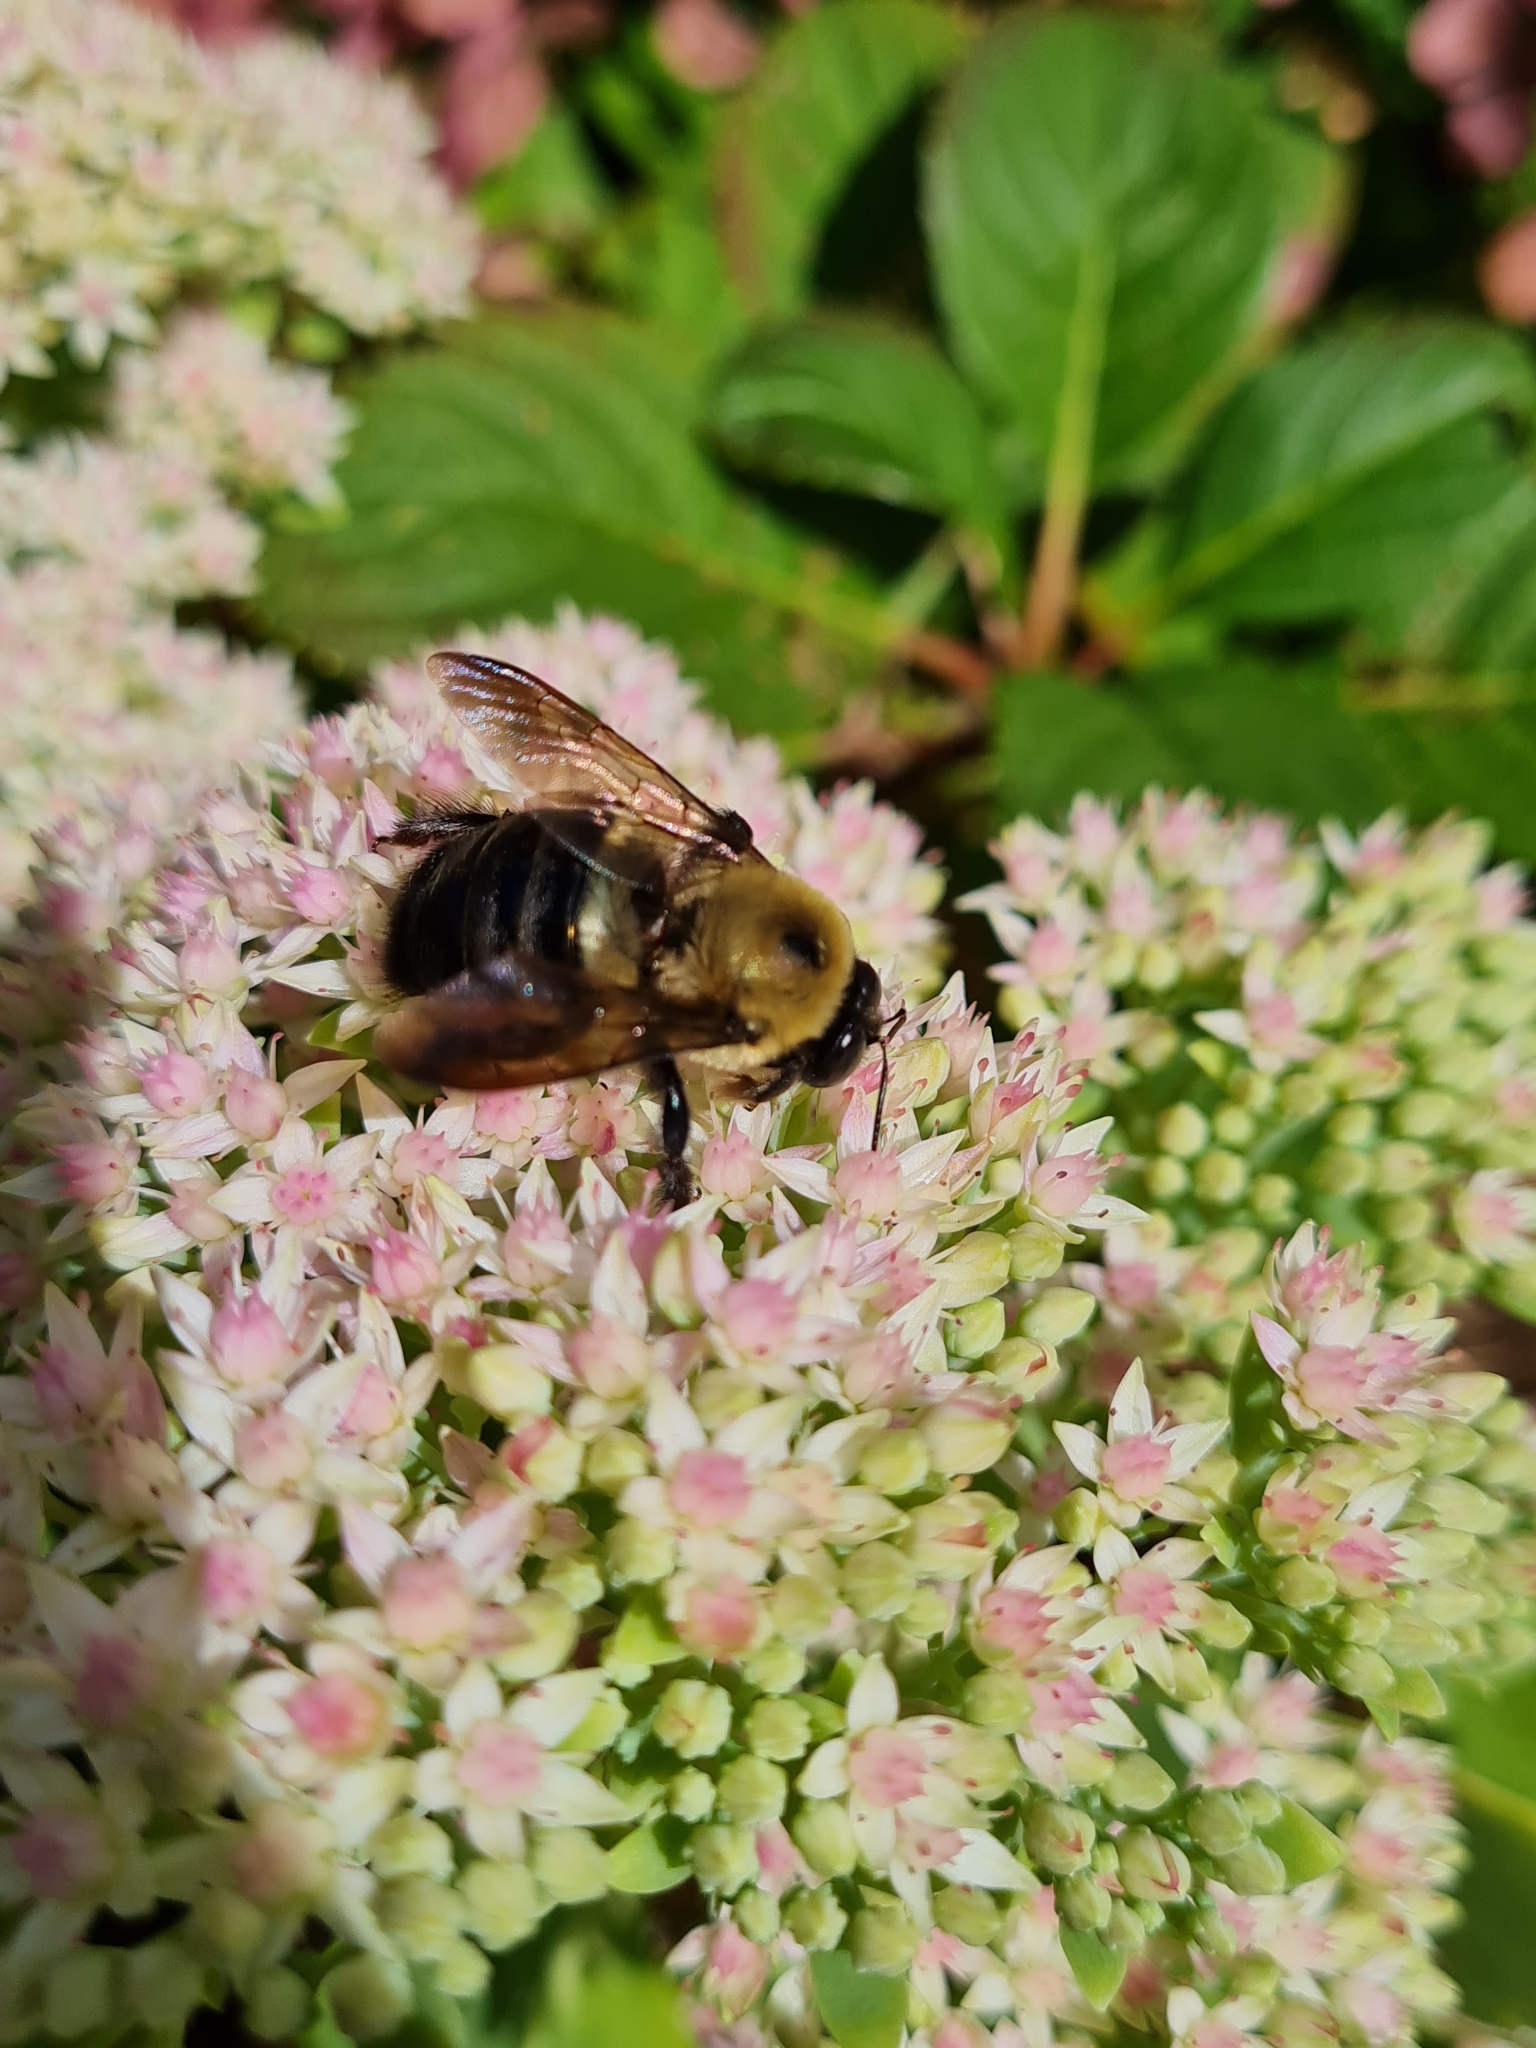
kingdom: Animalia
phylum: Arthropoda
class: Insecta
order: Hymenoptera
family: Apidae
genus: Xylocopa
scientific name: Xylocopa virginica
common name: Carpenter bee
